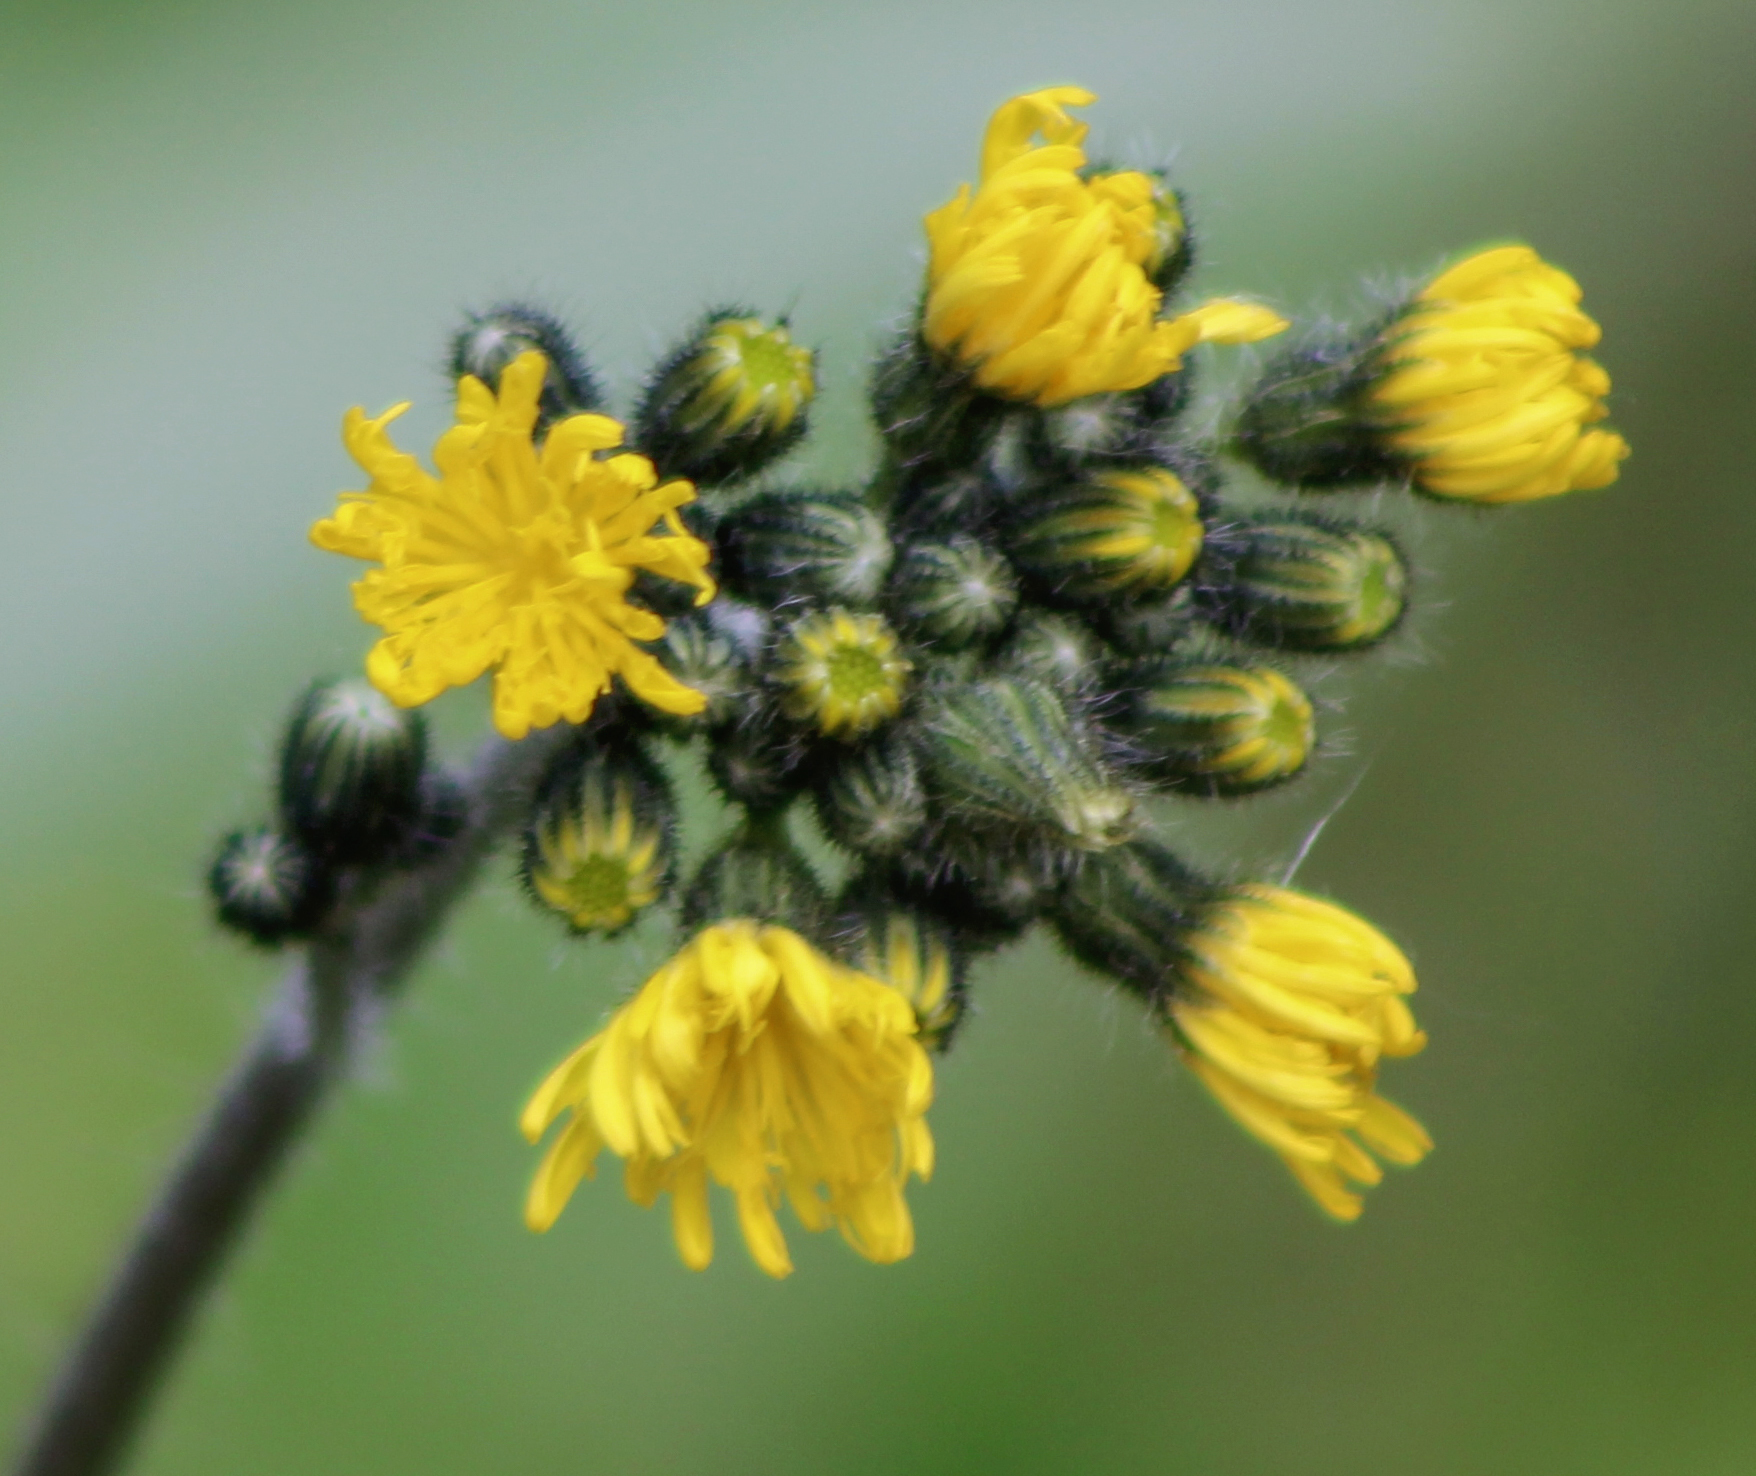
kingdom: Plantae
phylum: Tracheophyta
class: Magnoliopsida
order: Asterales
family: Asteraceae
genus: Pilosella
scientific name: Pilosella caespitosa
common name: Yellow fox-and-cubs
